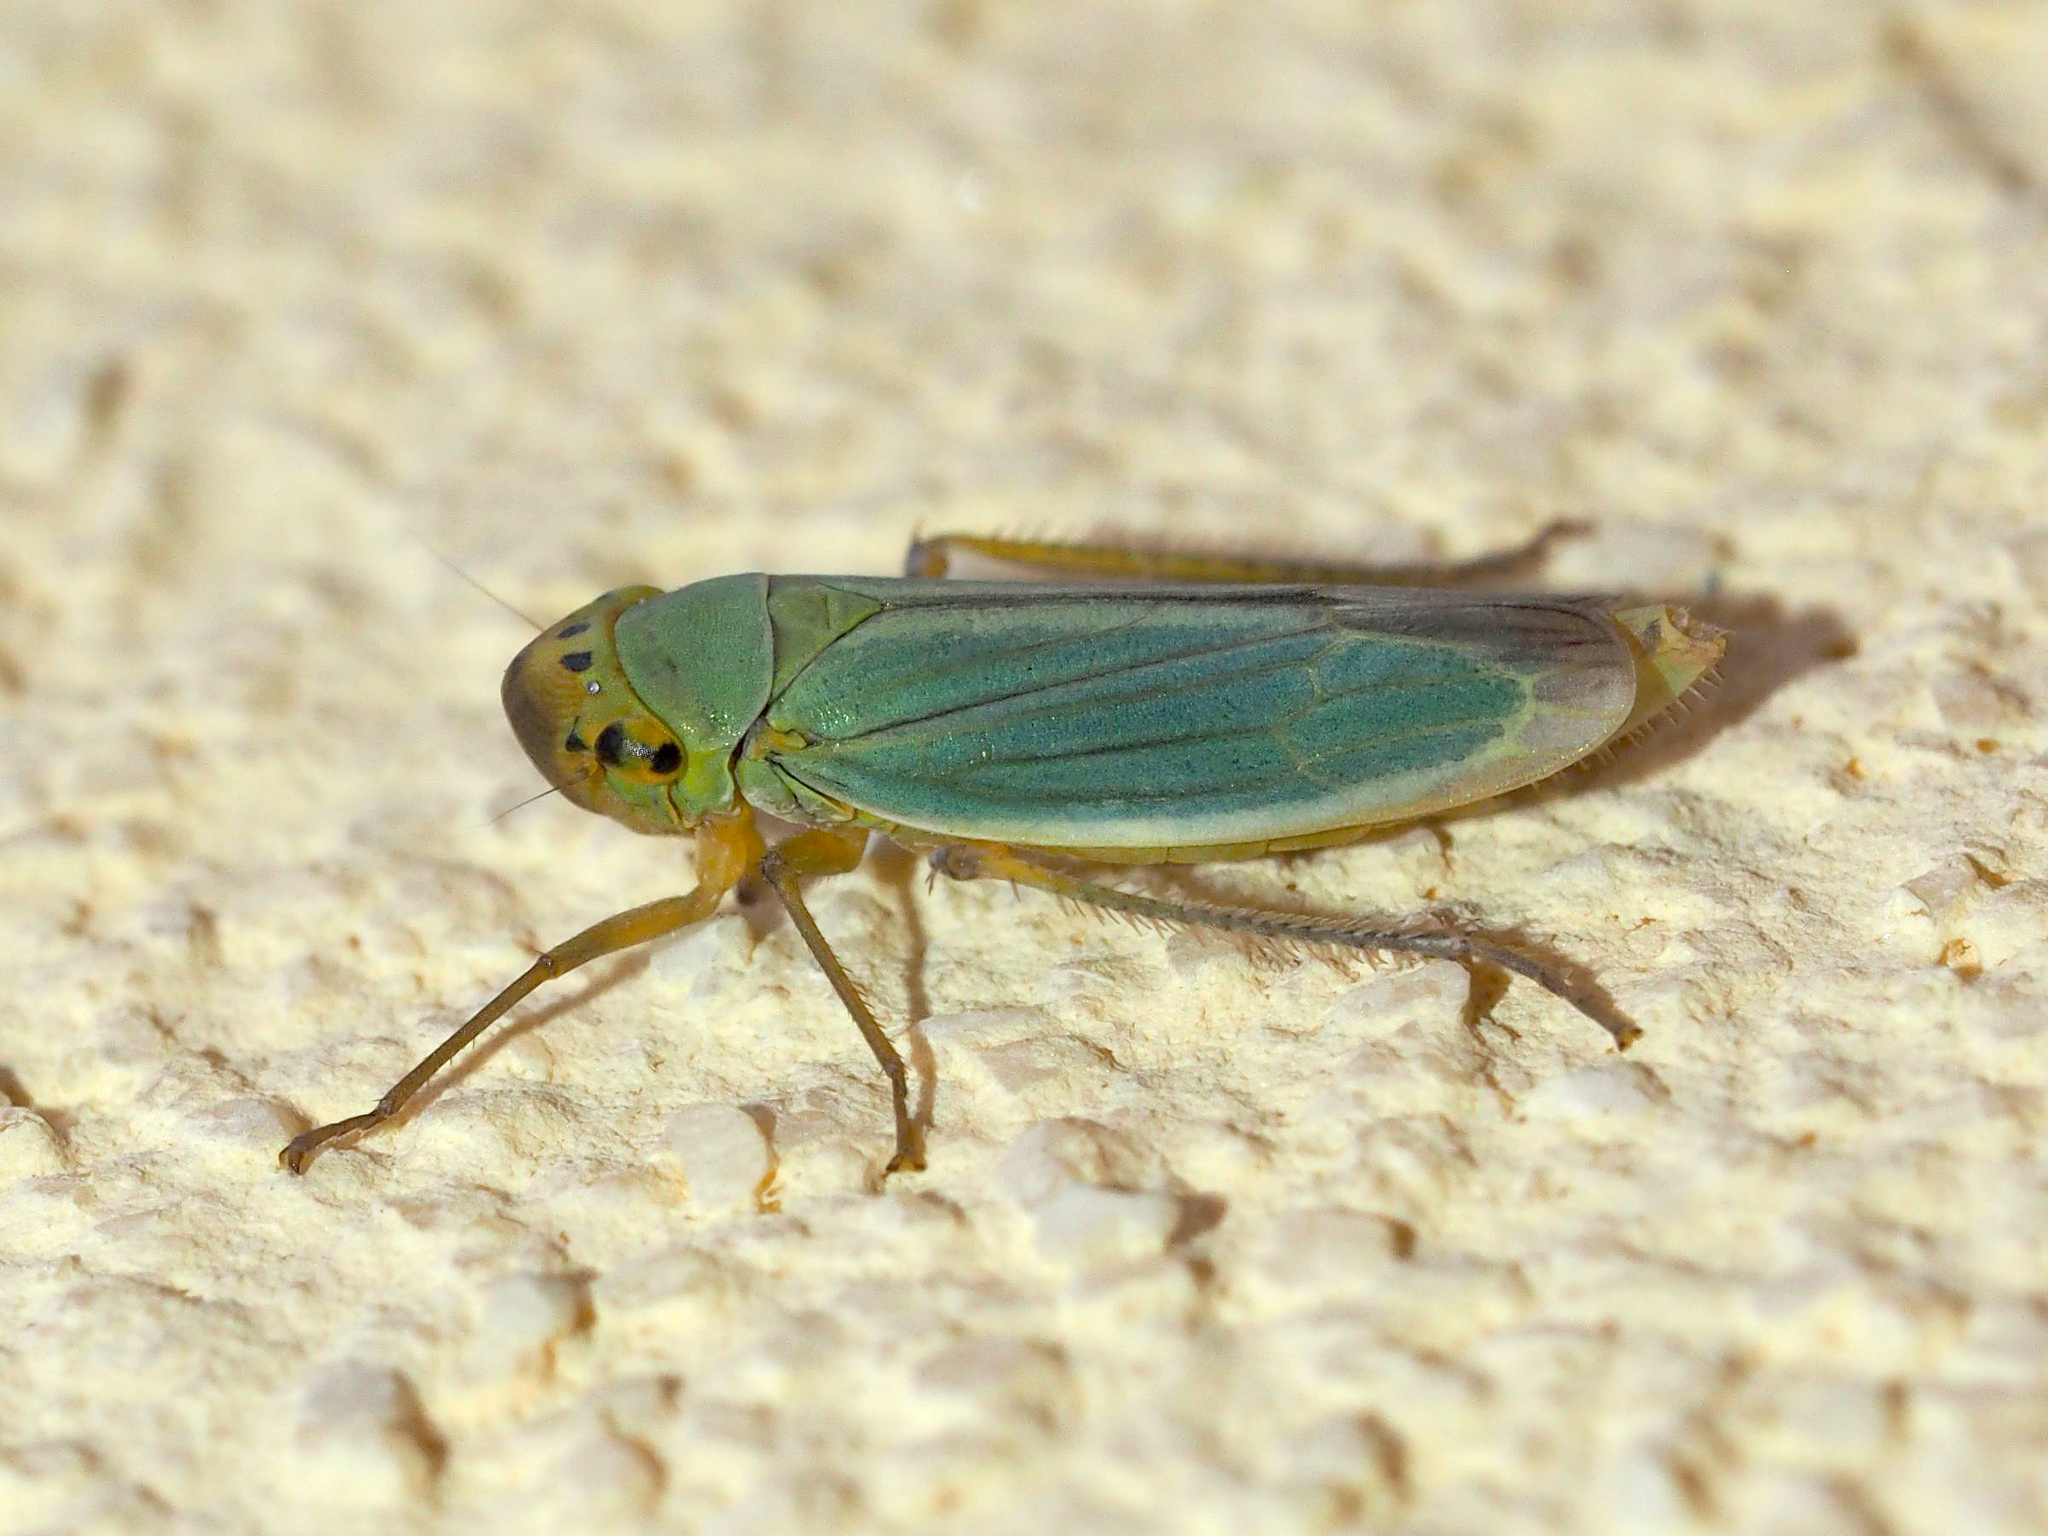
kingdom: Animalia
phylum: Arthropoda
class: Insecta
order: Hemiptera
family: Cicadellidae
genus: Cicadella
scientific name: Cicadella viridis
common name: Leafhopper
